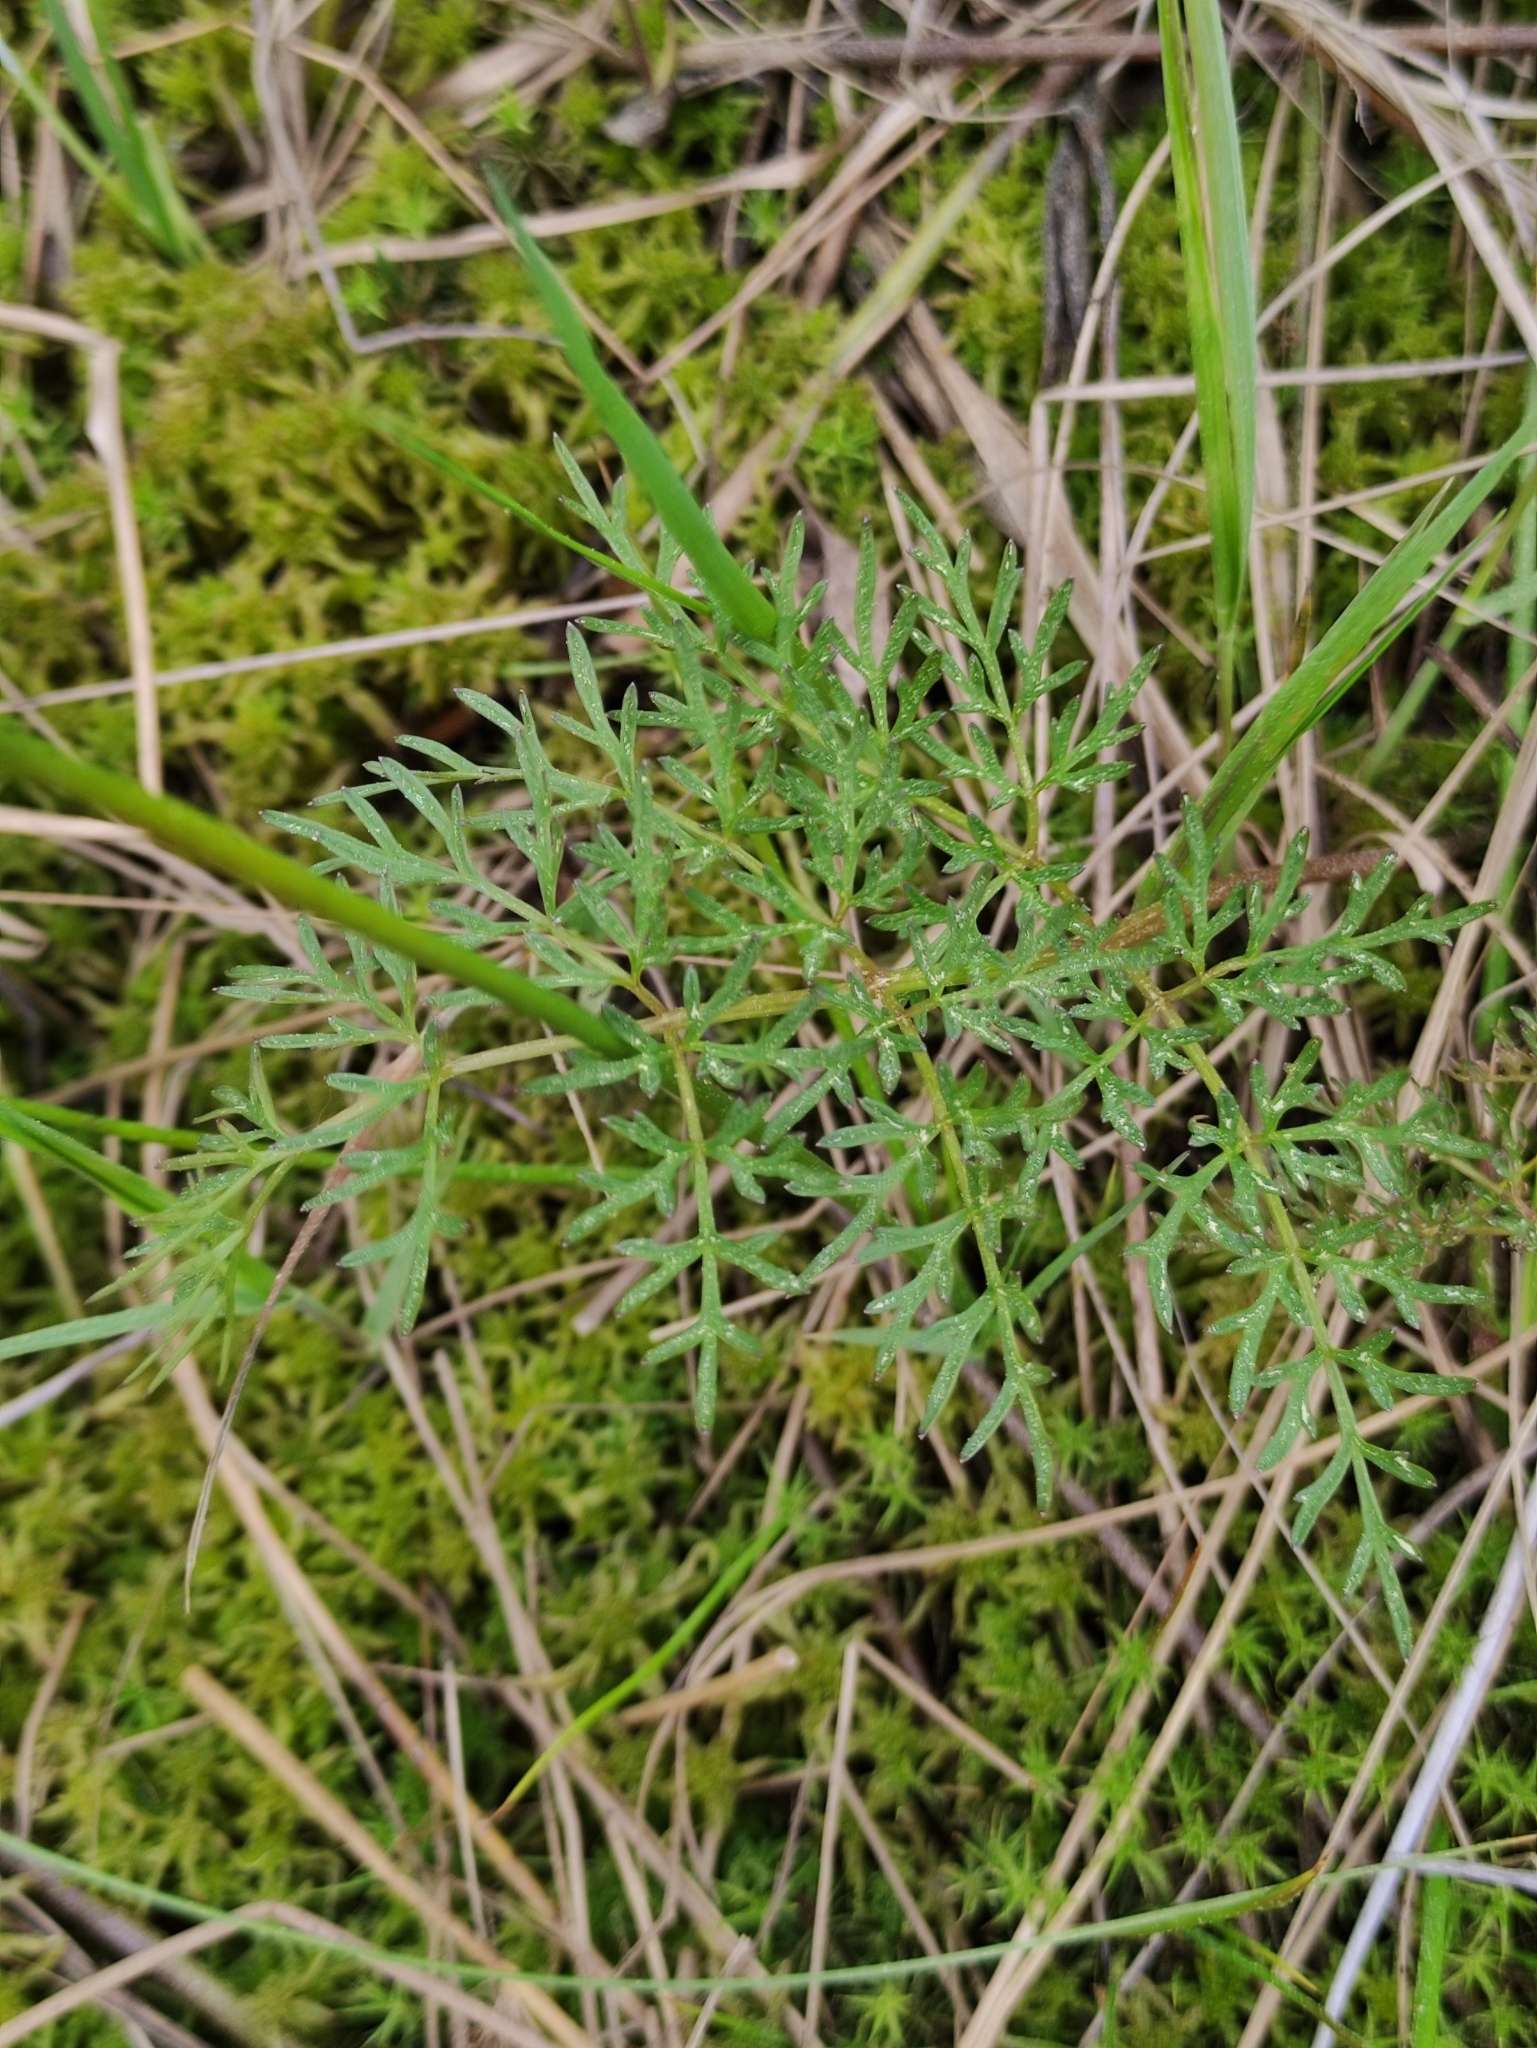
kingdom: Plantae
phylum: Tracheophyta
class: Magnoliopsida
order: Apiales
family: Apiaceae
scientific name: Apiaceae
